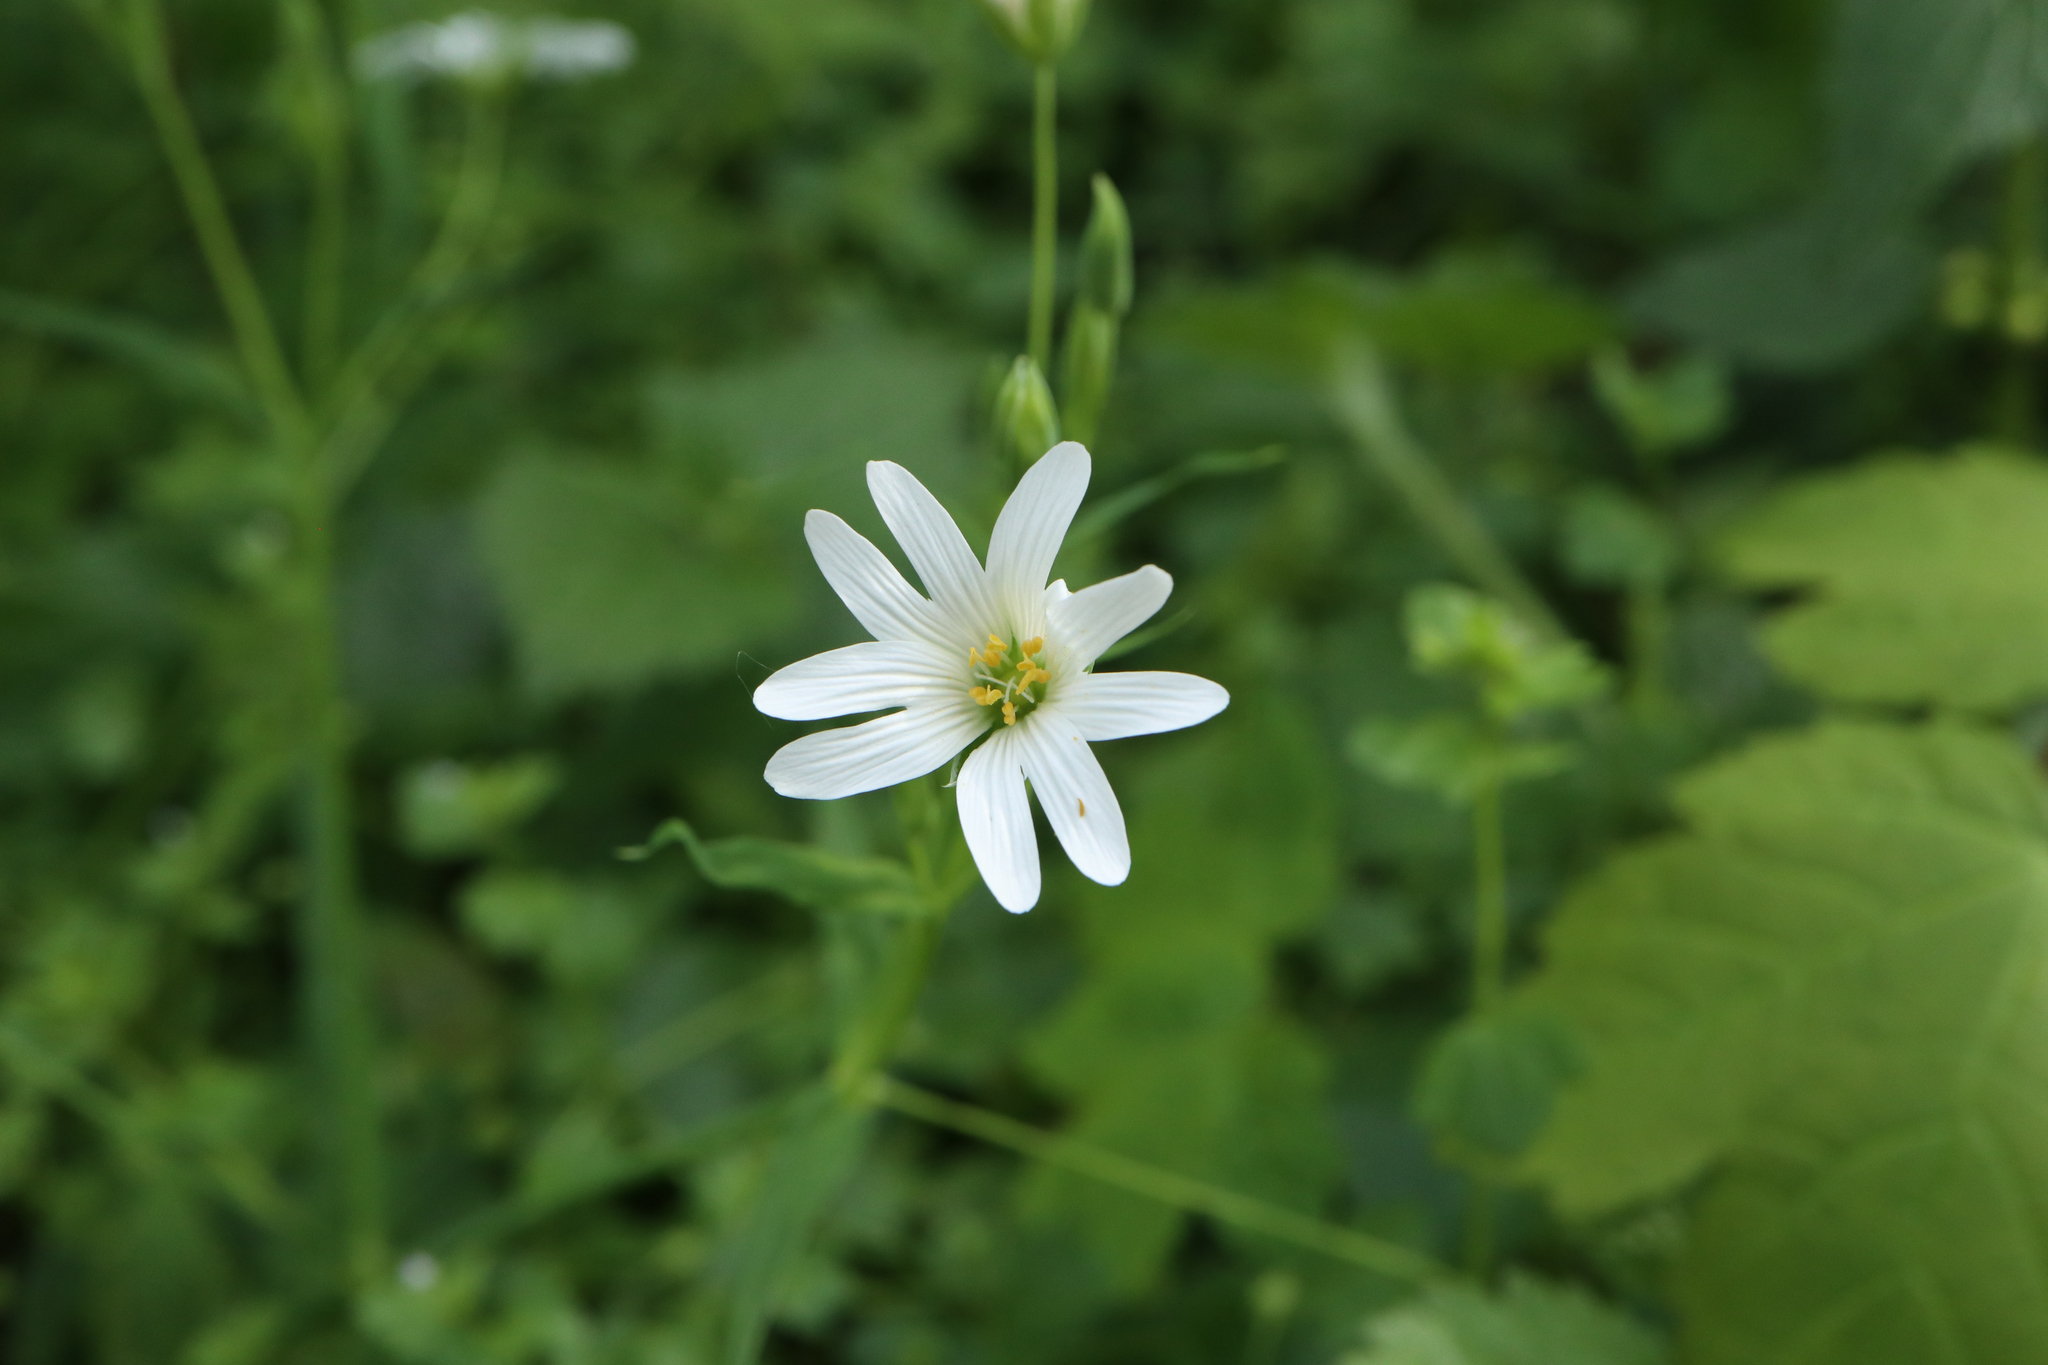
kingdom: Plantae
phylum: Tracheophyta
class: Magnoliopsida
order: Caryophyllales
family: Caryophyllaceae
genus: Rabelera
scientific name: Rabelera holostea
